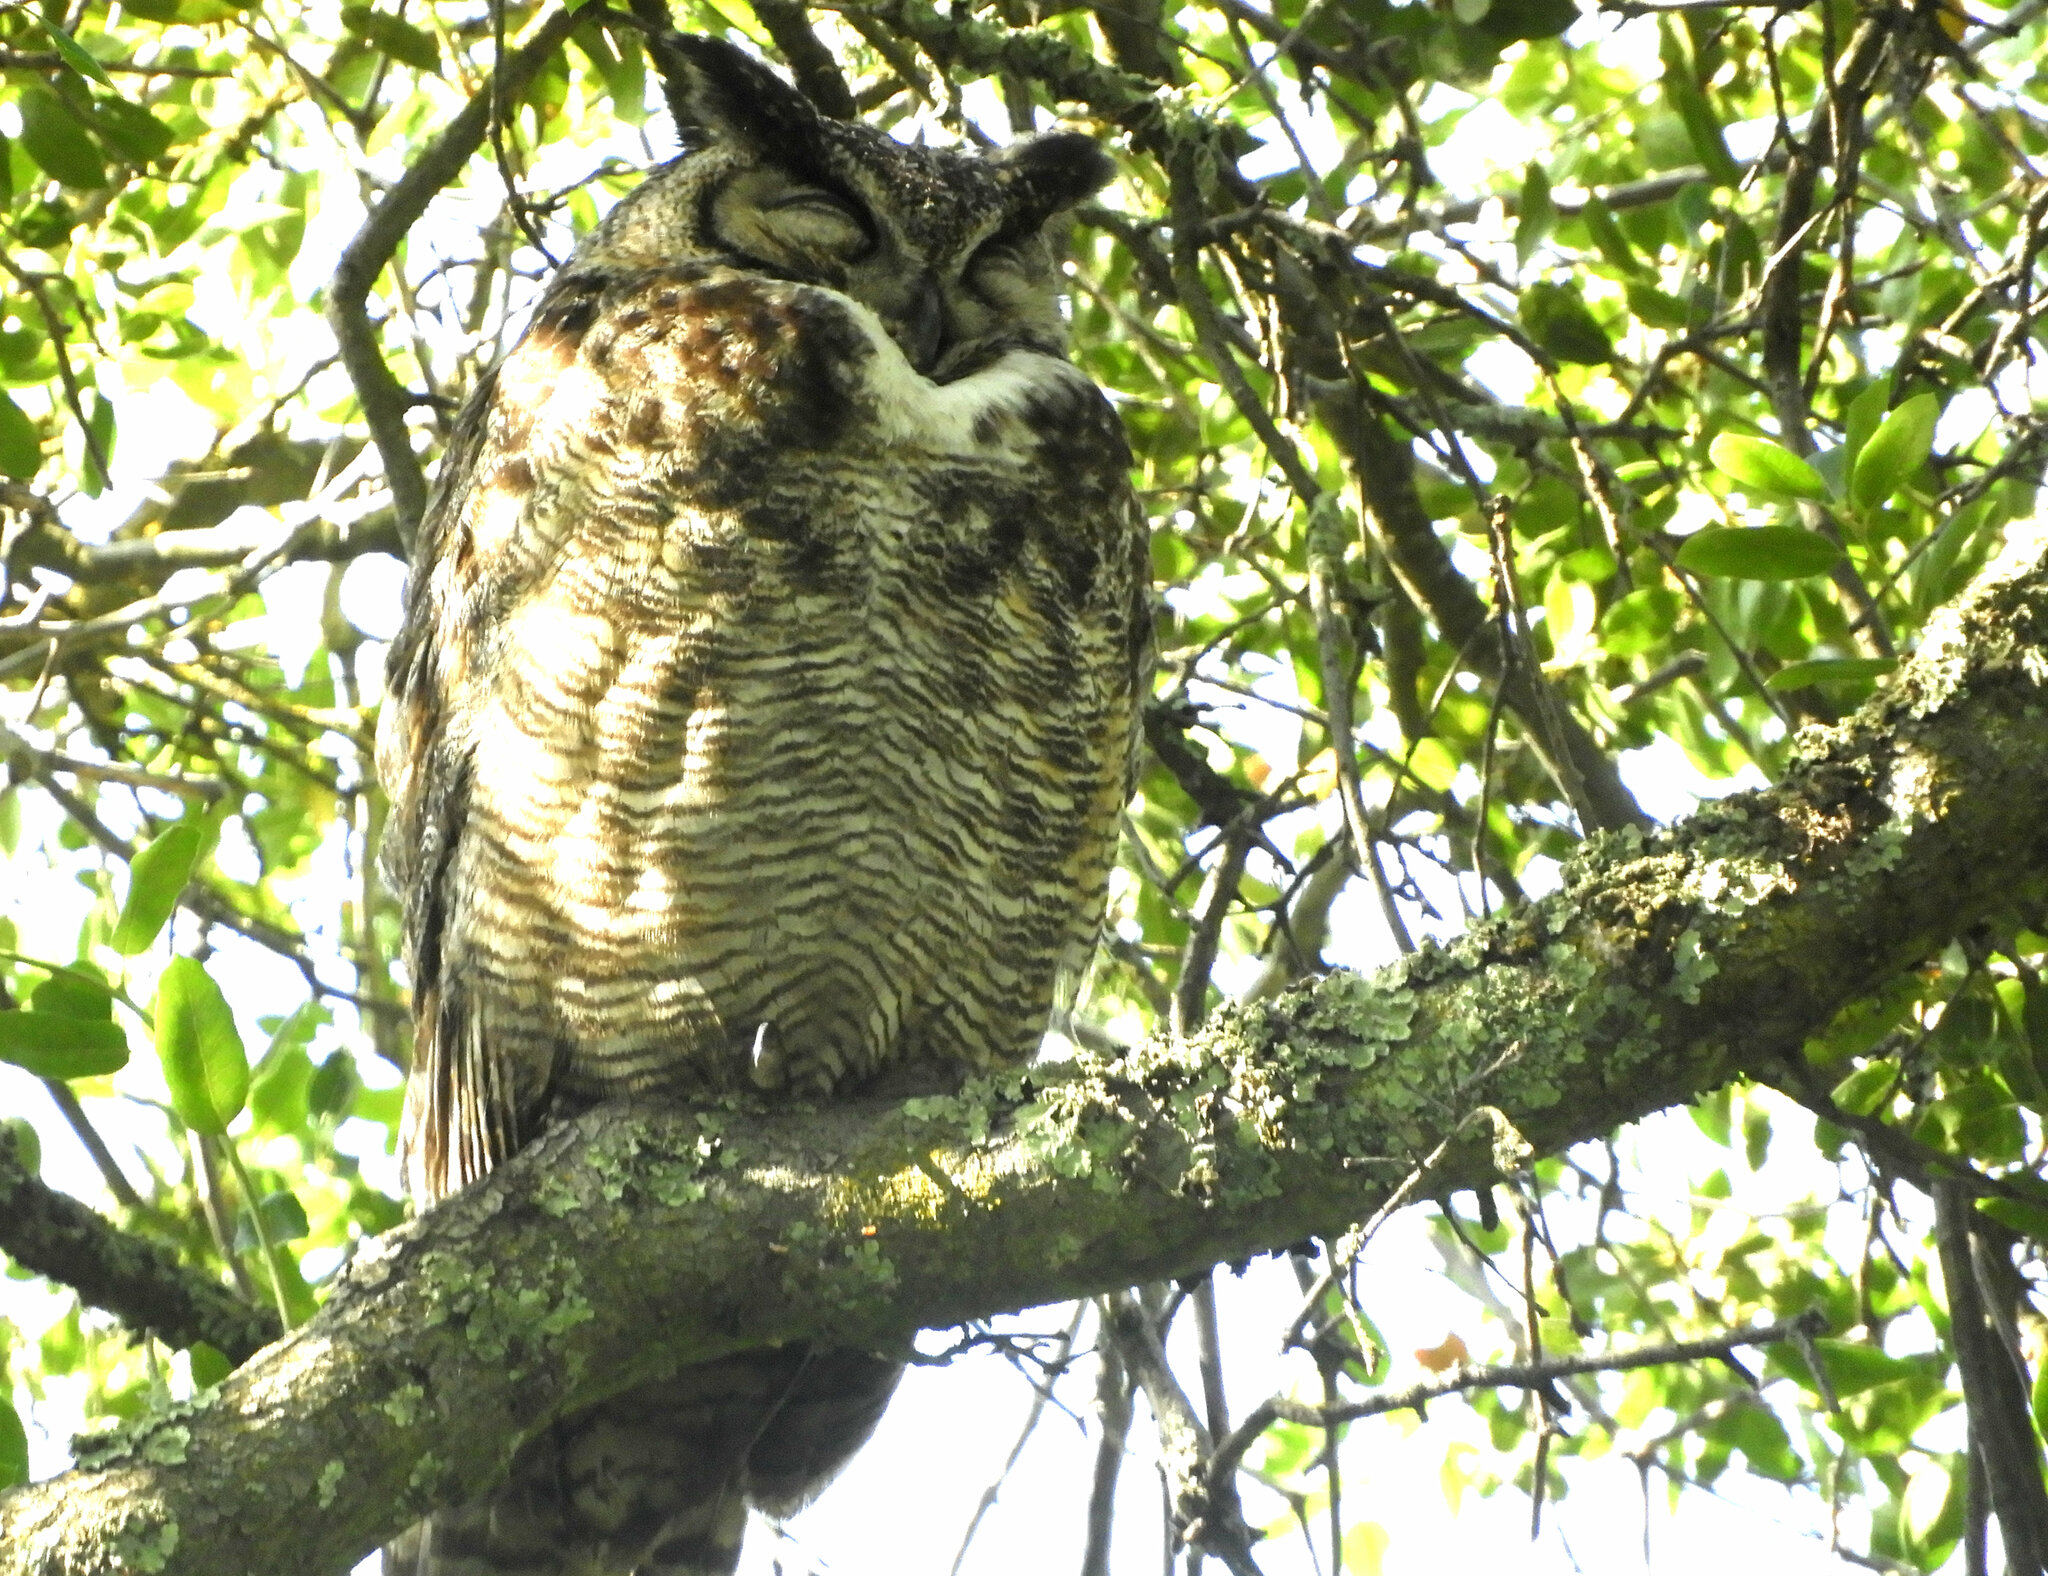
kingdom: Animalia
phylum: Chordata
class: Aves
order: Strigiformes
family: Strigidae
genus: Bubo
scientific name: Bubo virginianus
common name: Great horned owl
